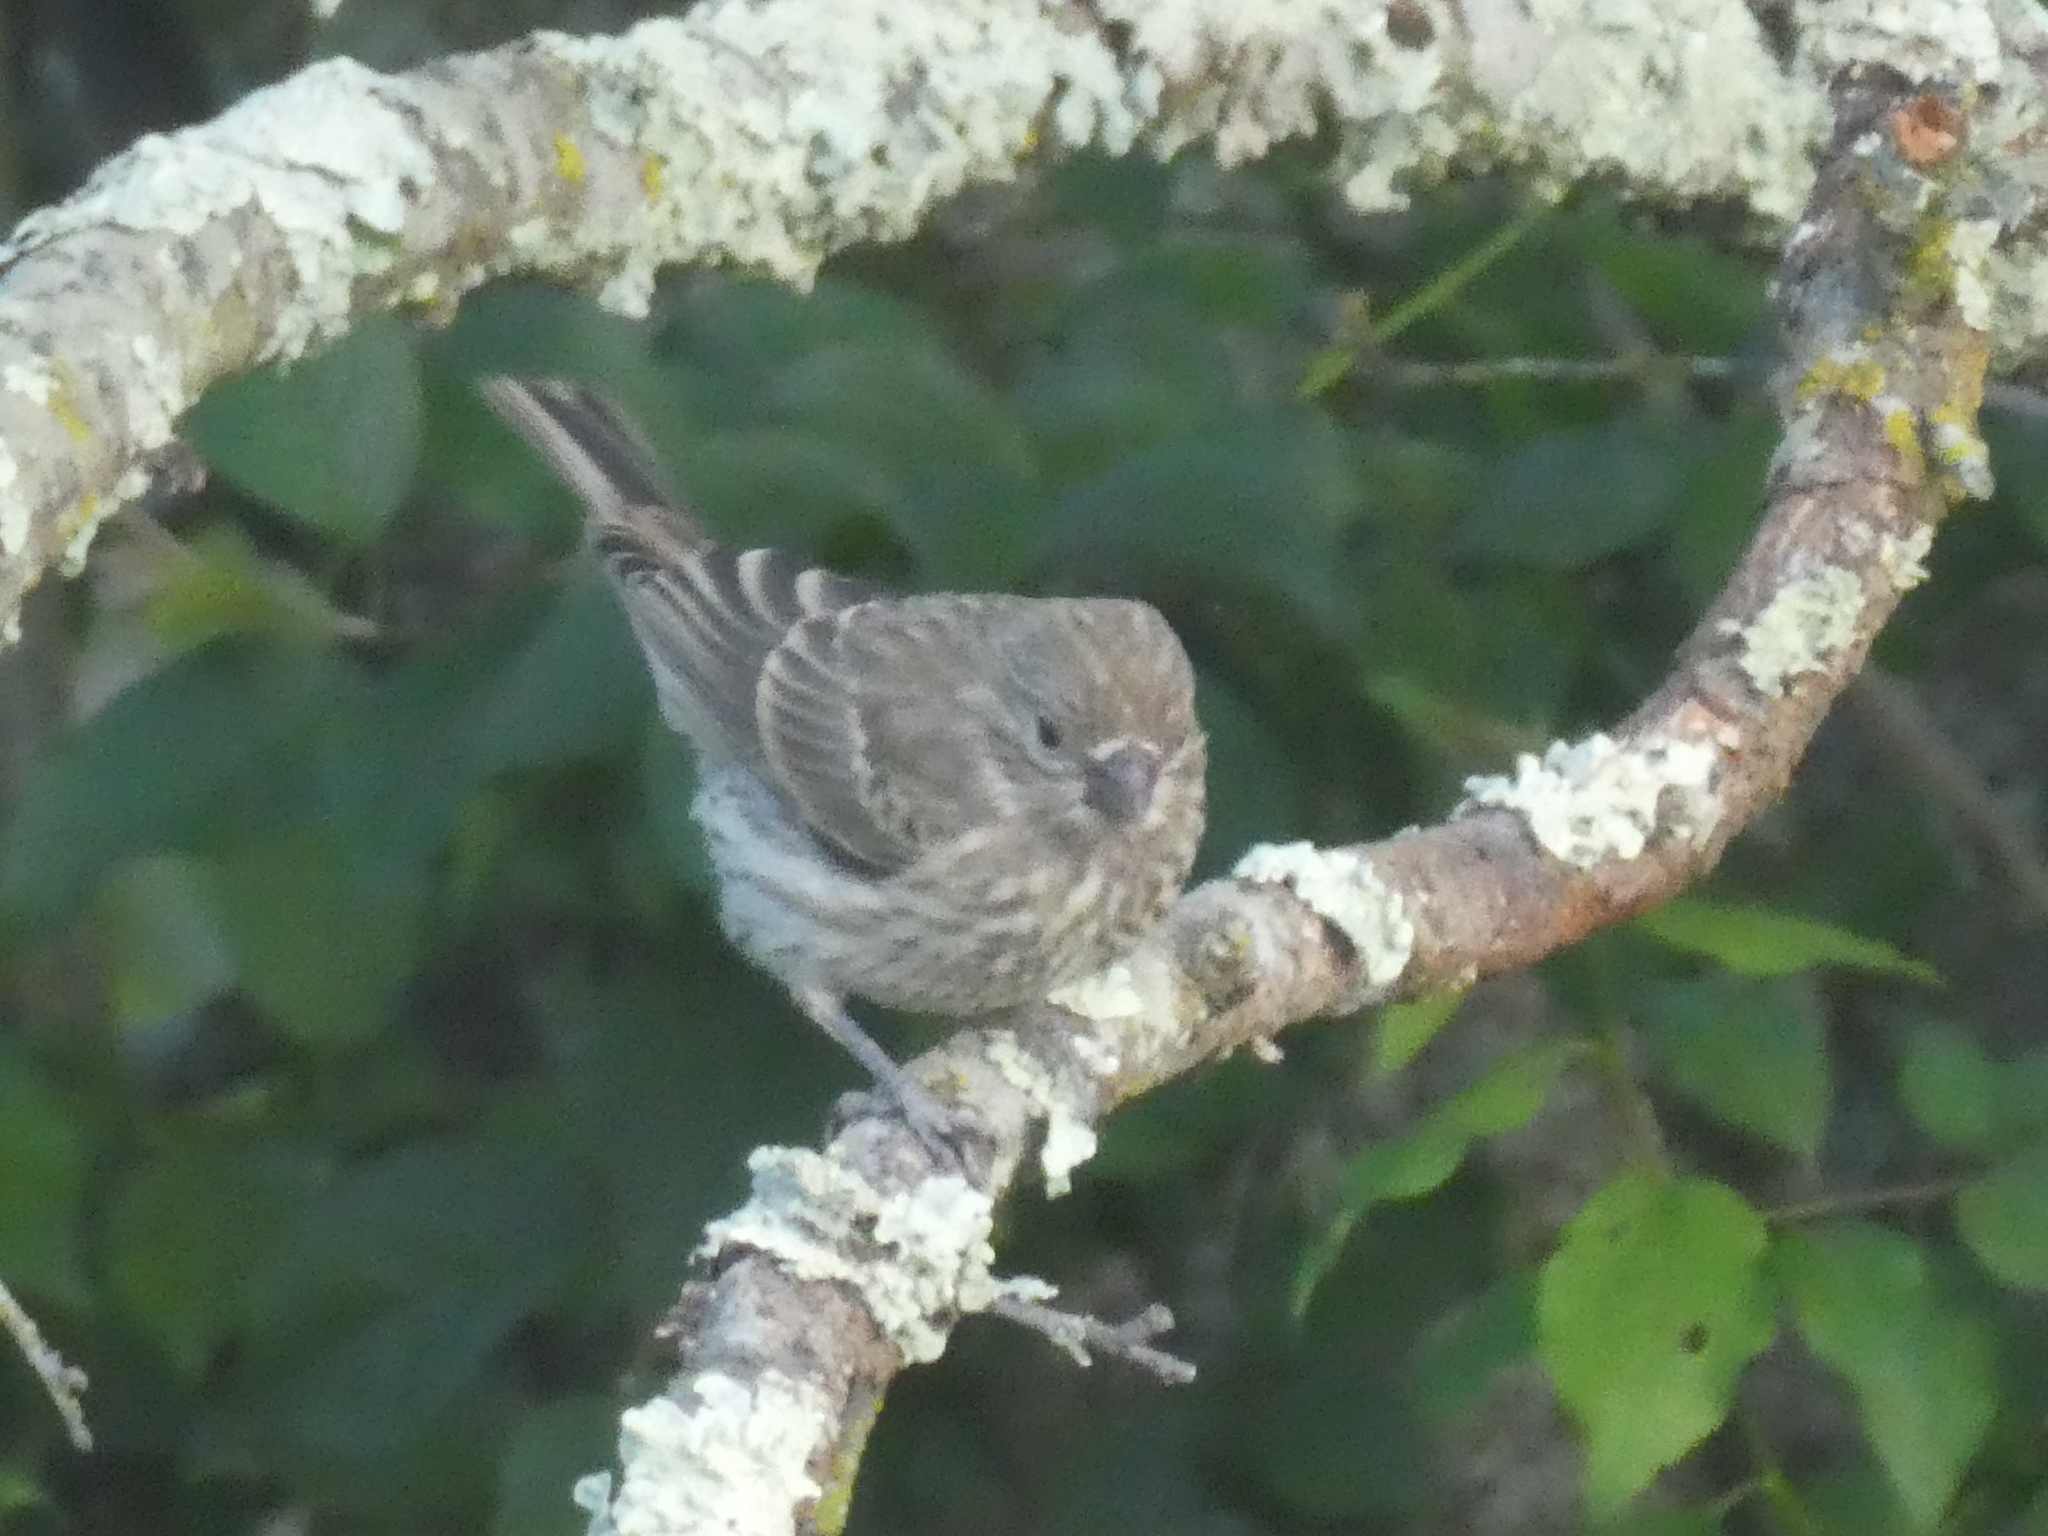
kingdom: Animalia
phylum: Chordata
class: Aves
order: Passeriformes
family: Fringillidae
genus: Haemorhous
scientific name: Haemorhous mexicanus
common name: House finch
